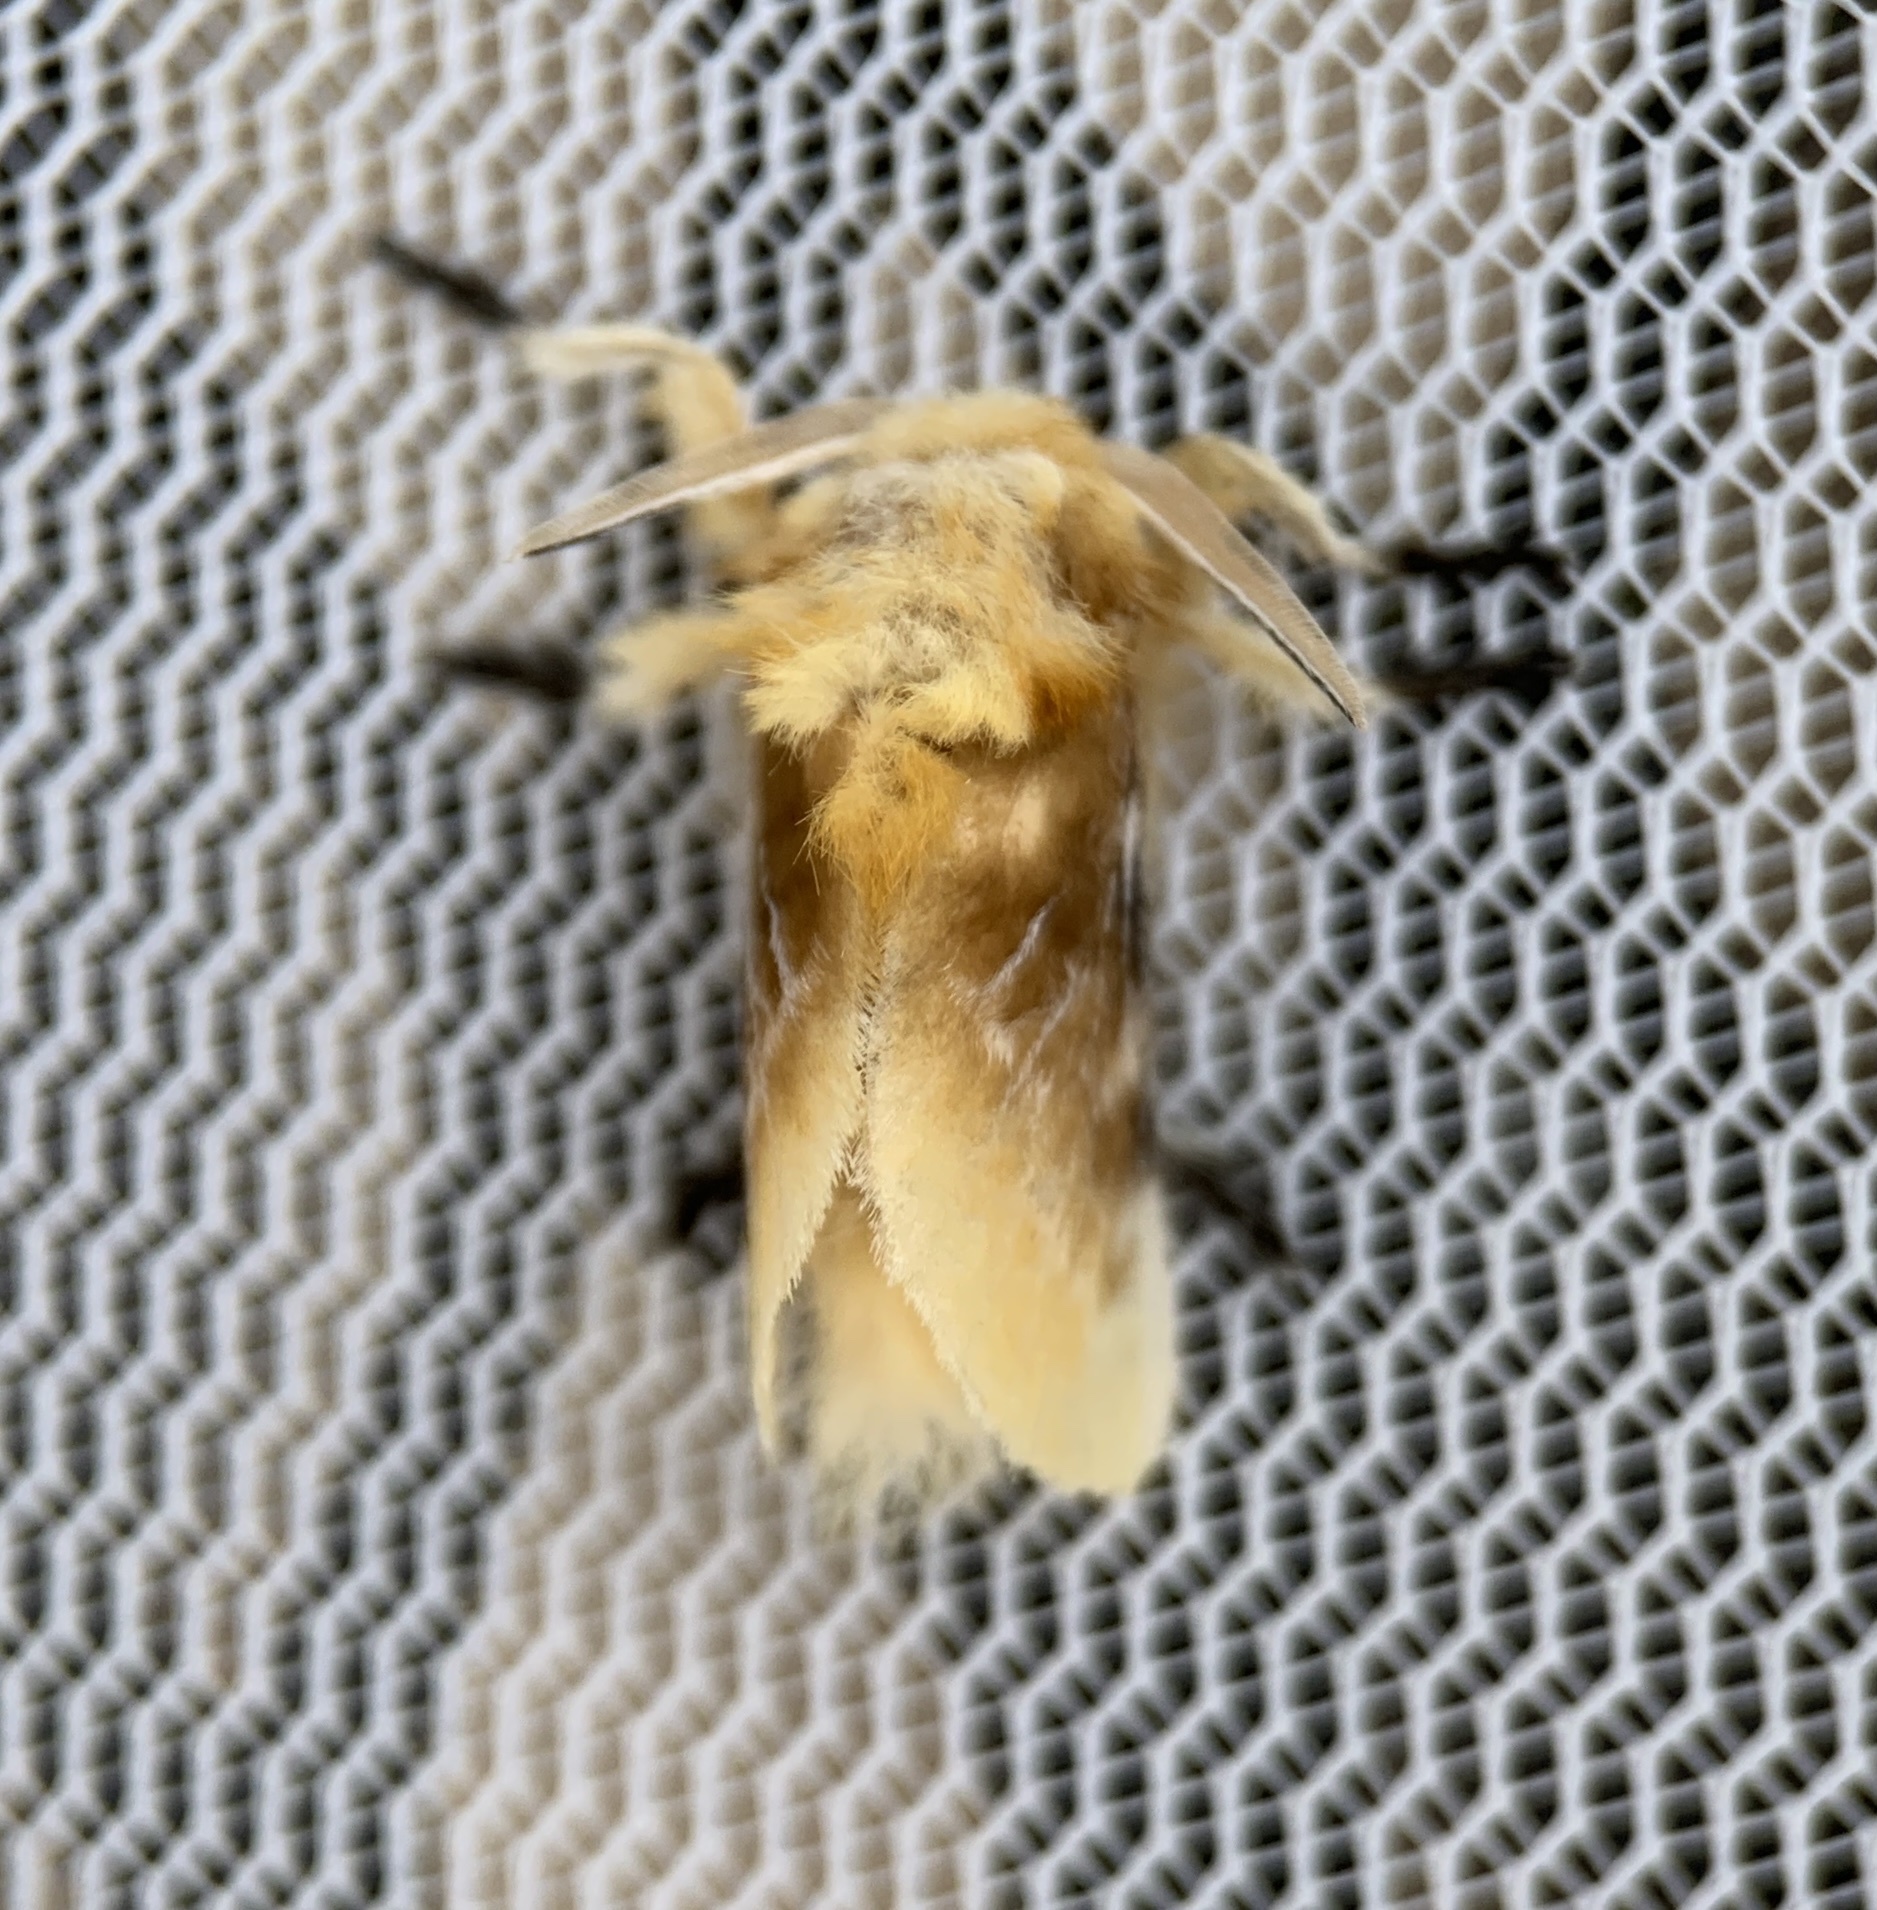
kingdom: Animalia
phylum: Arthropoda
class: Insecta
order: Lepidoptera
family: Megalopygidae
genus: Megalopyge
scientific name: Megalopyge opercularis
